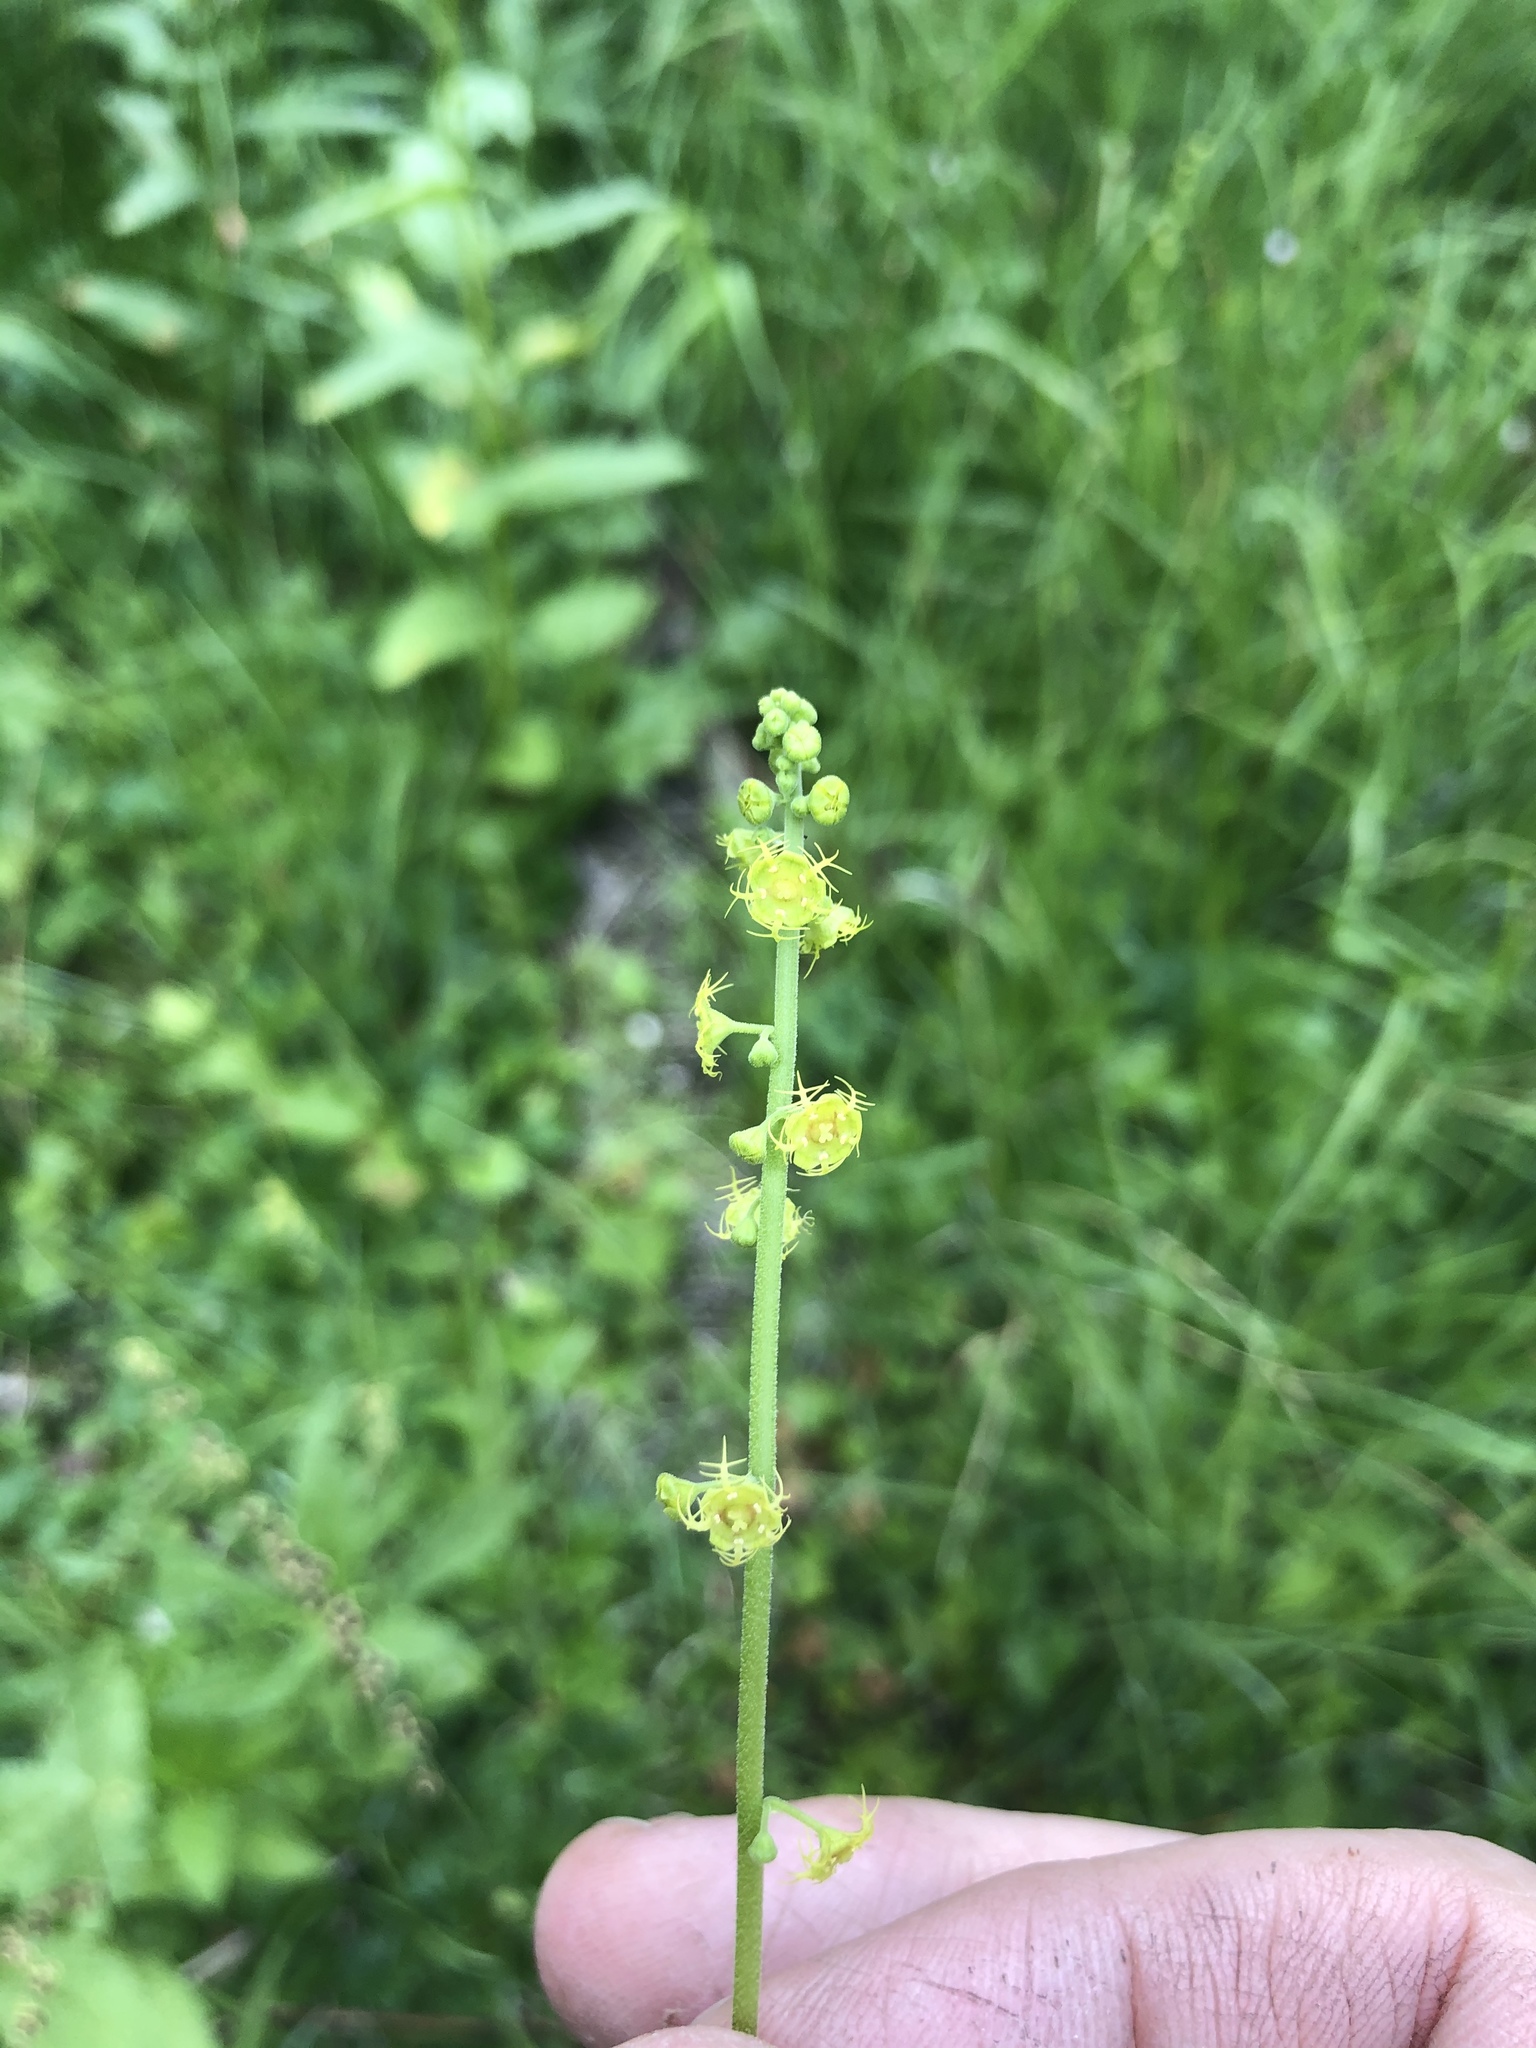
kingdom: Plantae
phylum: Tracheophyta
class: Magnoliopsida
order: Saxifragales
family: Saxifragaceae
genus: Pectiantia
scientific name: Pectiantia pentandra
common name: Alpine bishop's-cap
